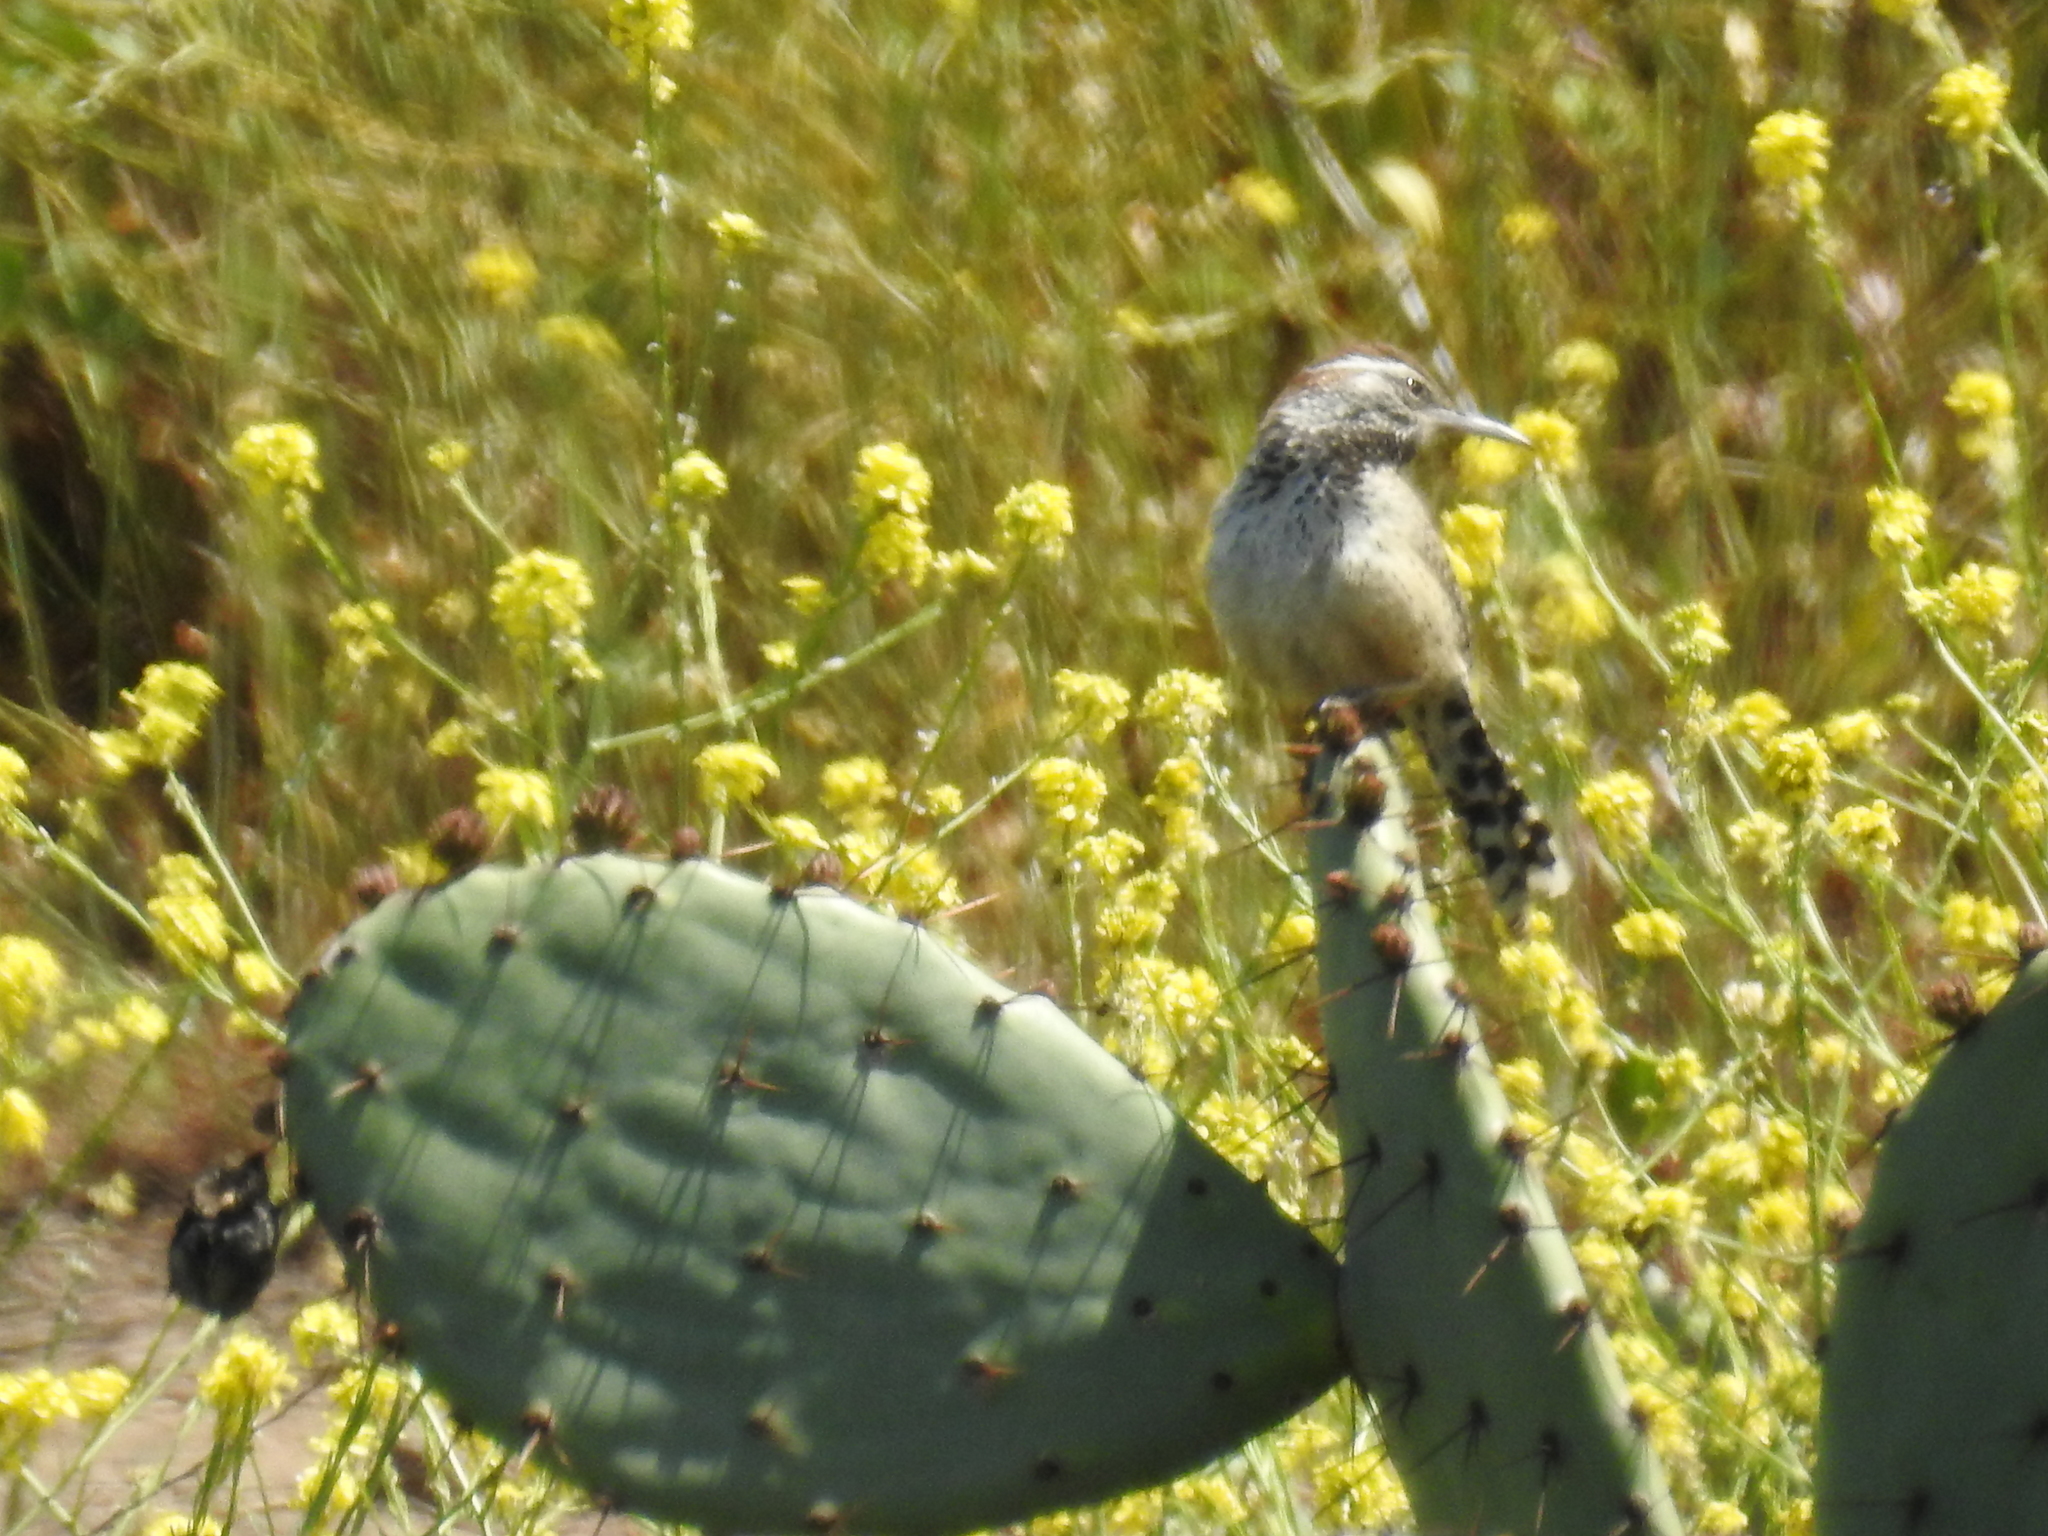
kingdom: Animalia
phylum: Chordata
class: Aves
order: Passeriformes
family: Troglodytidae
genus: Campylorhynchus
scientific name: Campylorhynchus brunneicapillus
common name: Cactus wren
